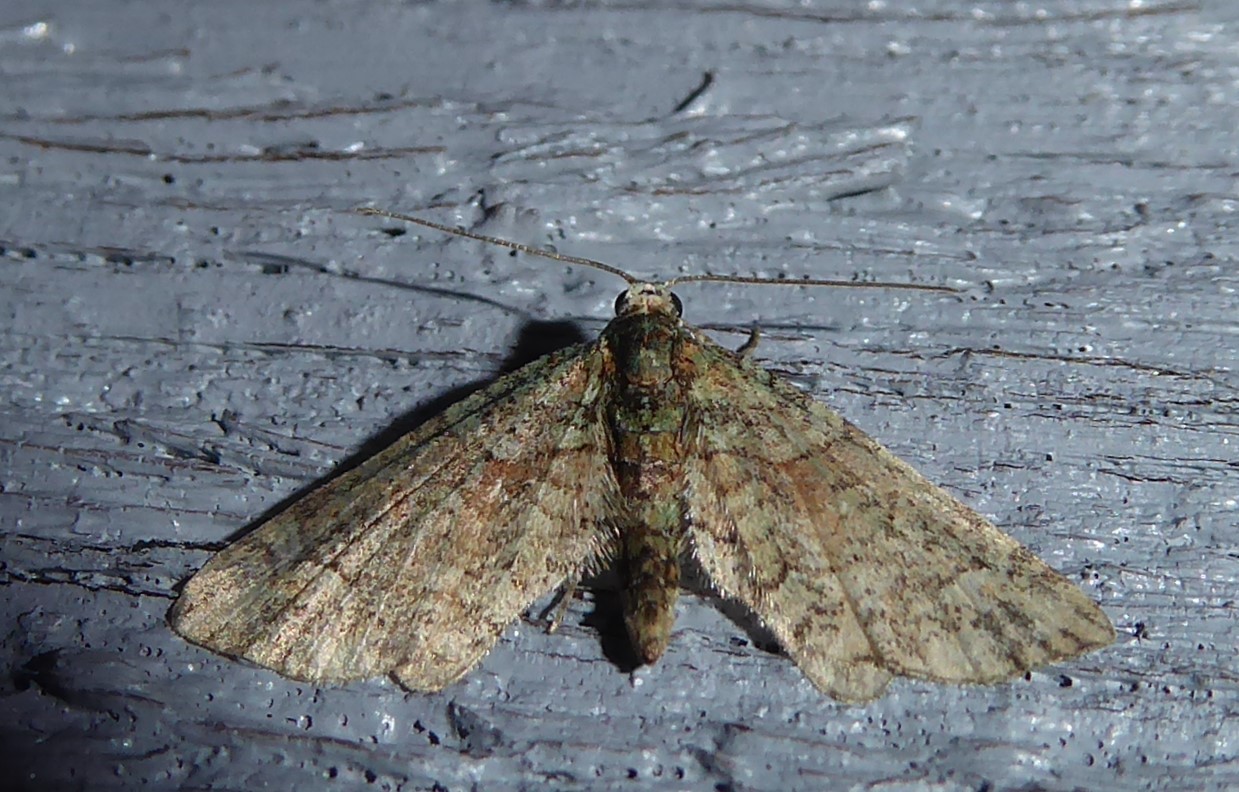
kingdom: Animalia
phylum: Arthropoda
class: Insecta
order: Lepidoptera
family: Geometridae
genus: Idaea
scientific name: Idaea mutanda
